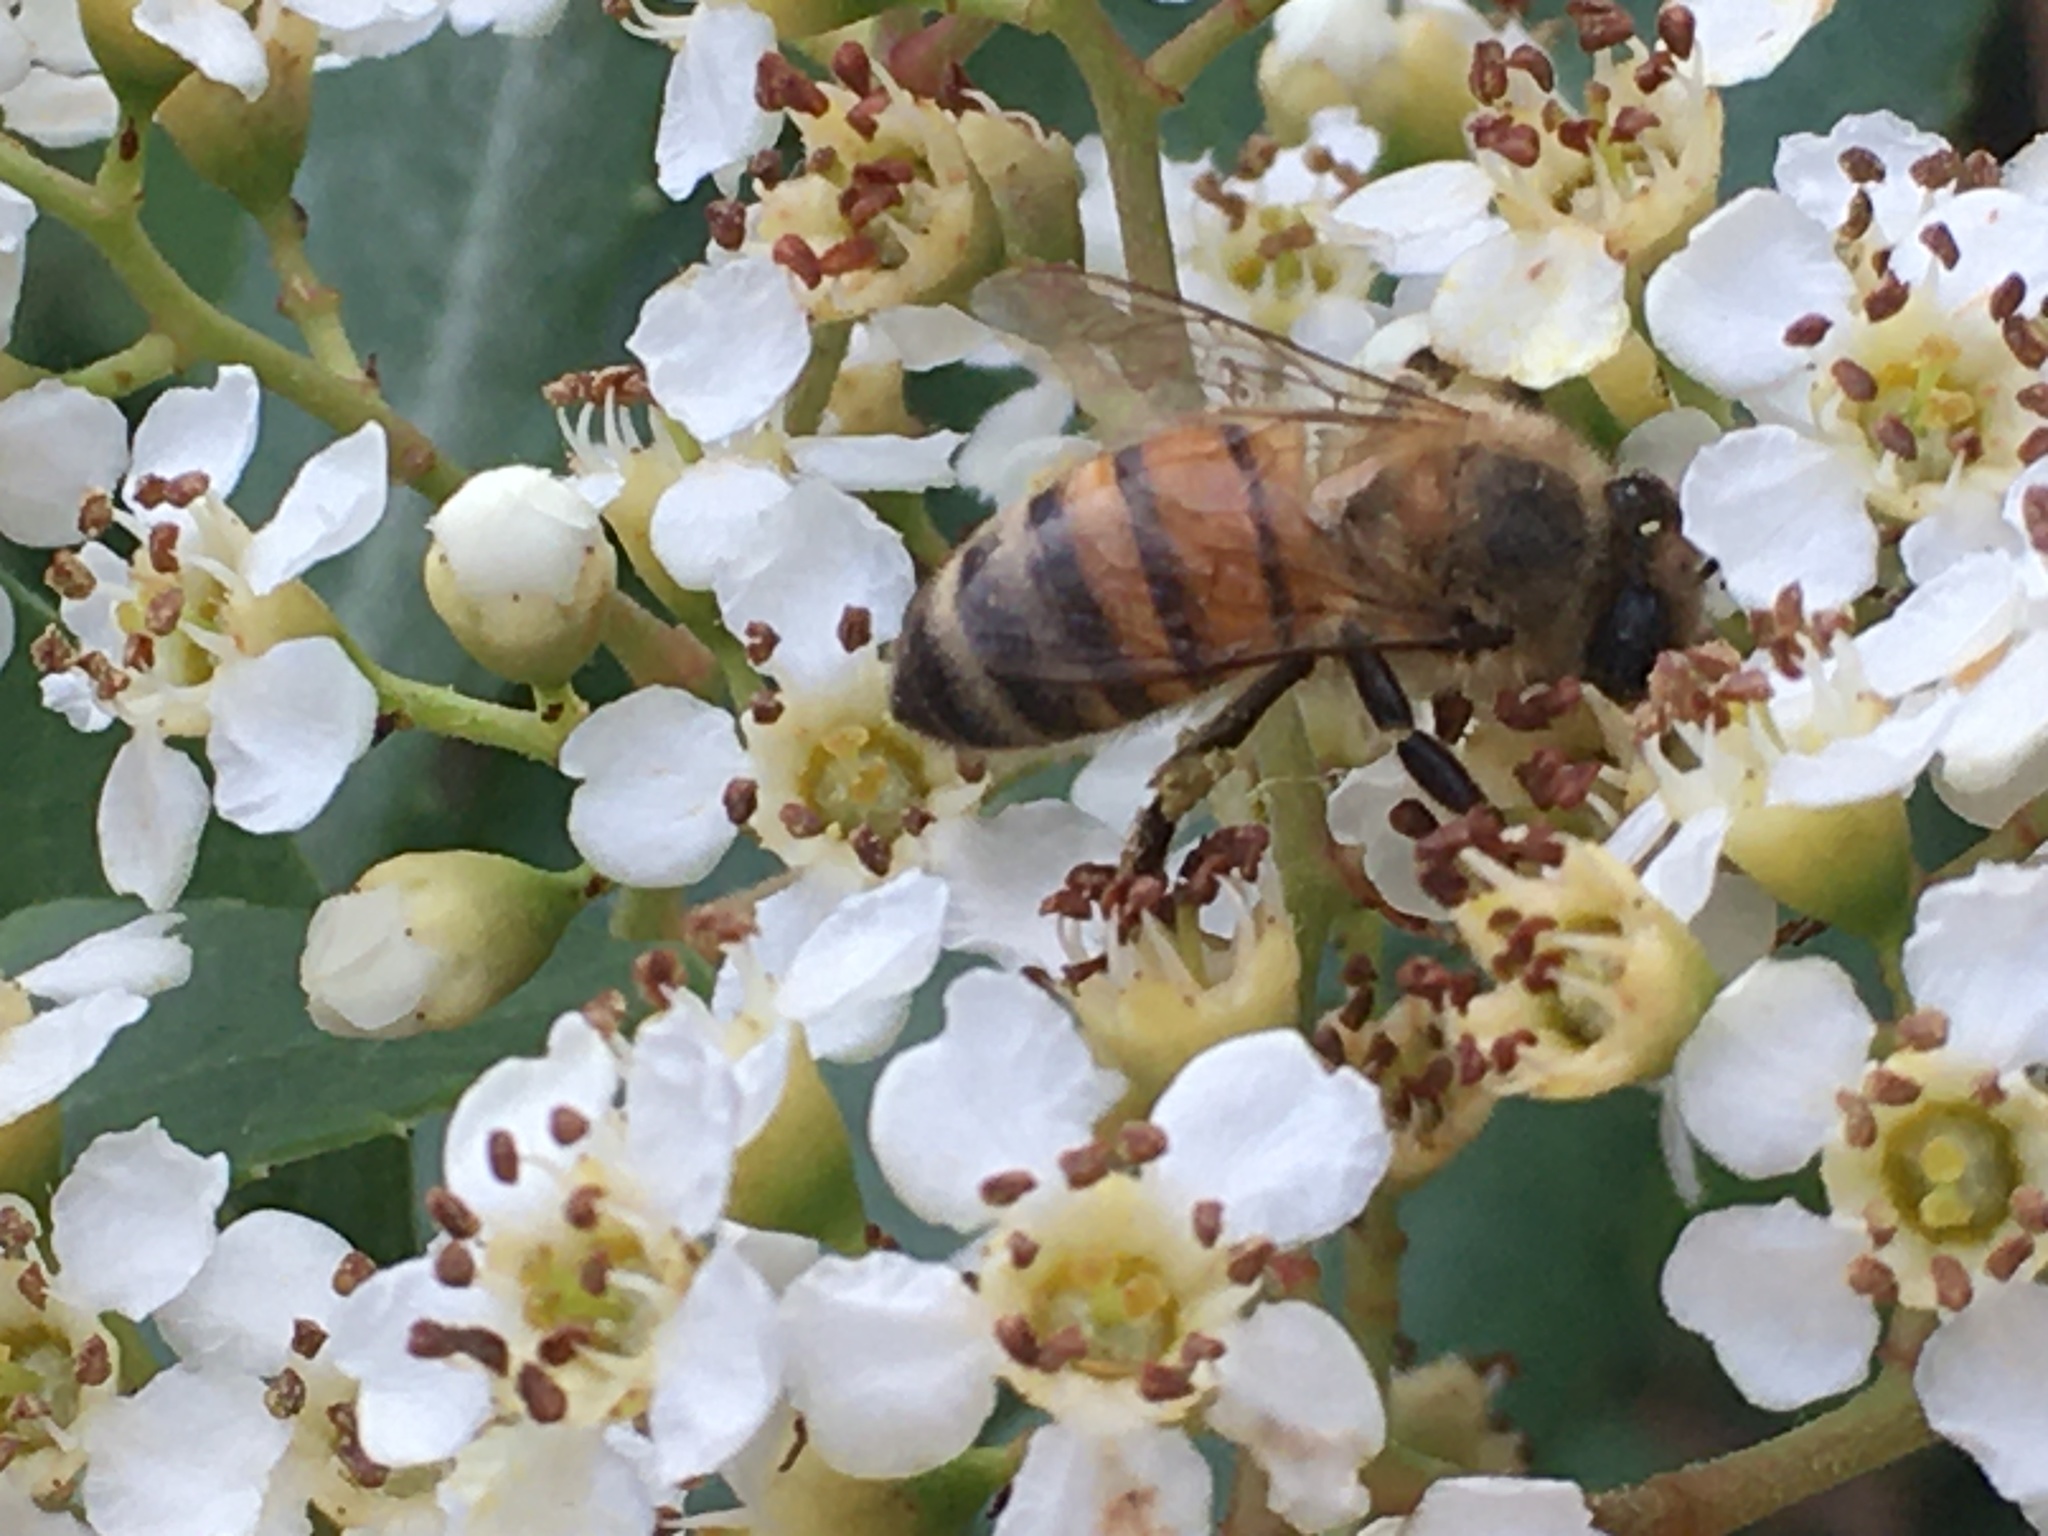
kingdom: Animalia
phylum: Arthropoda
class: Insecta
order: Hymenoptera
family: Apidae
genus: Apis
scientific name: Apis mellifera
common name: Honey bee
